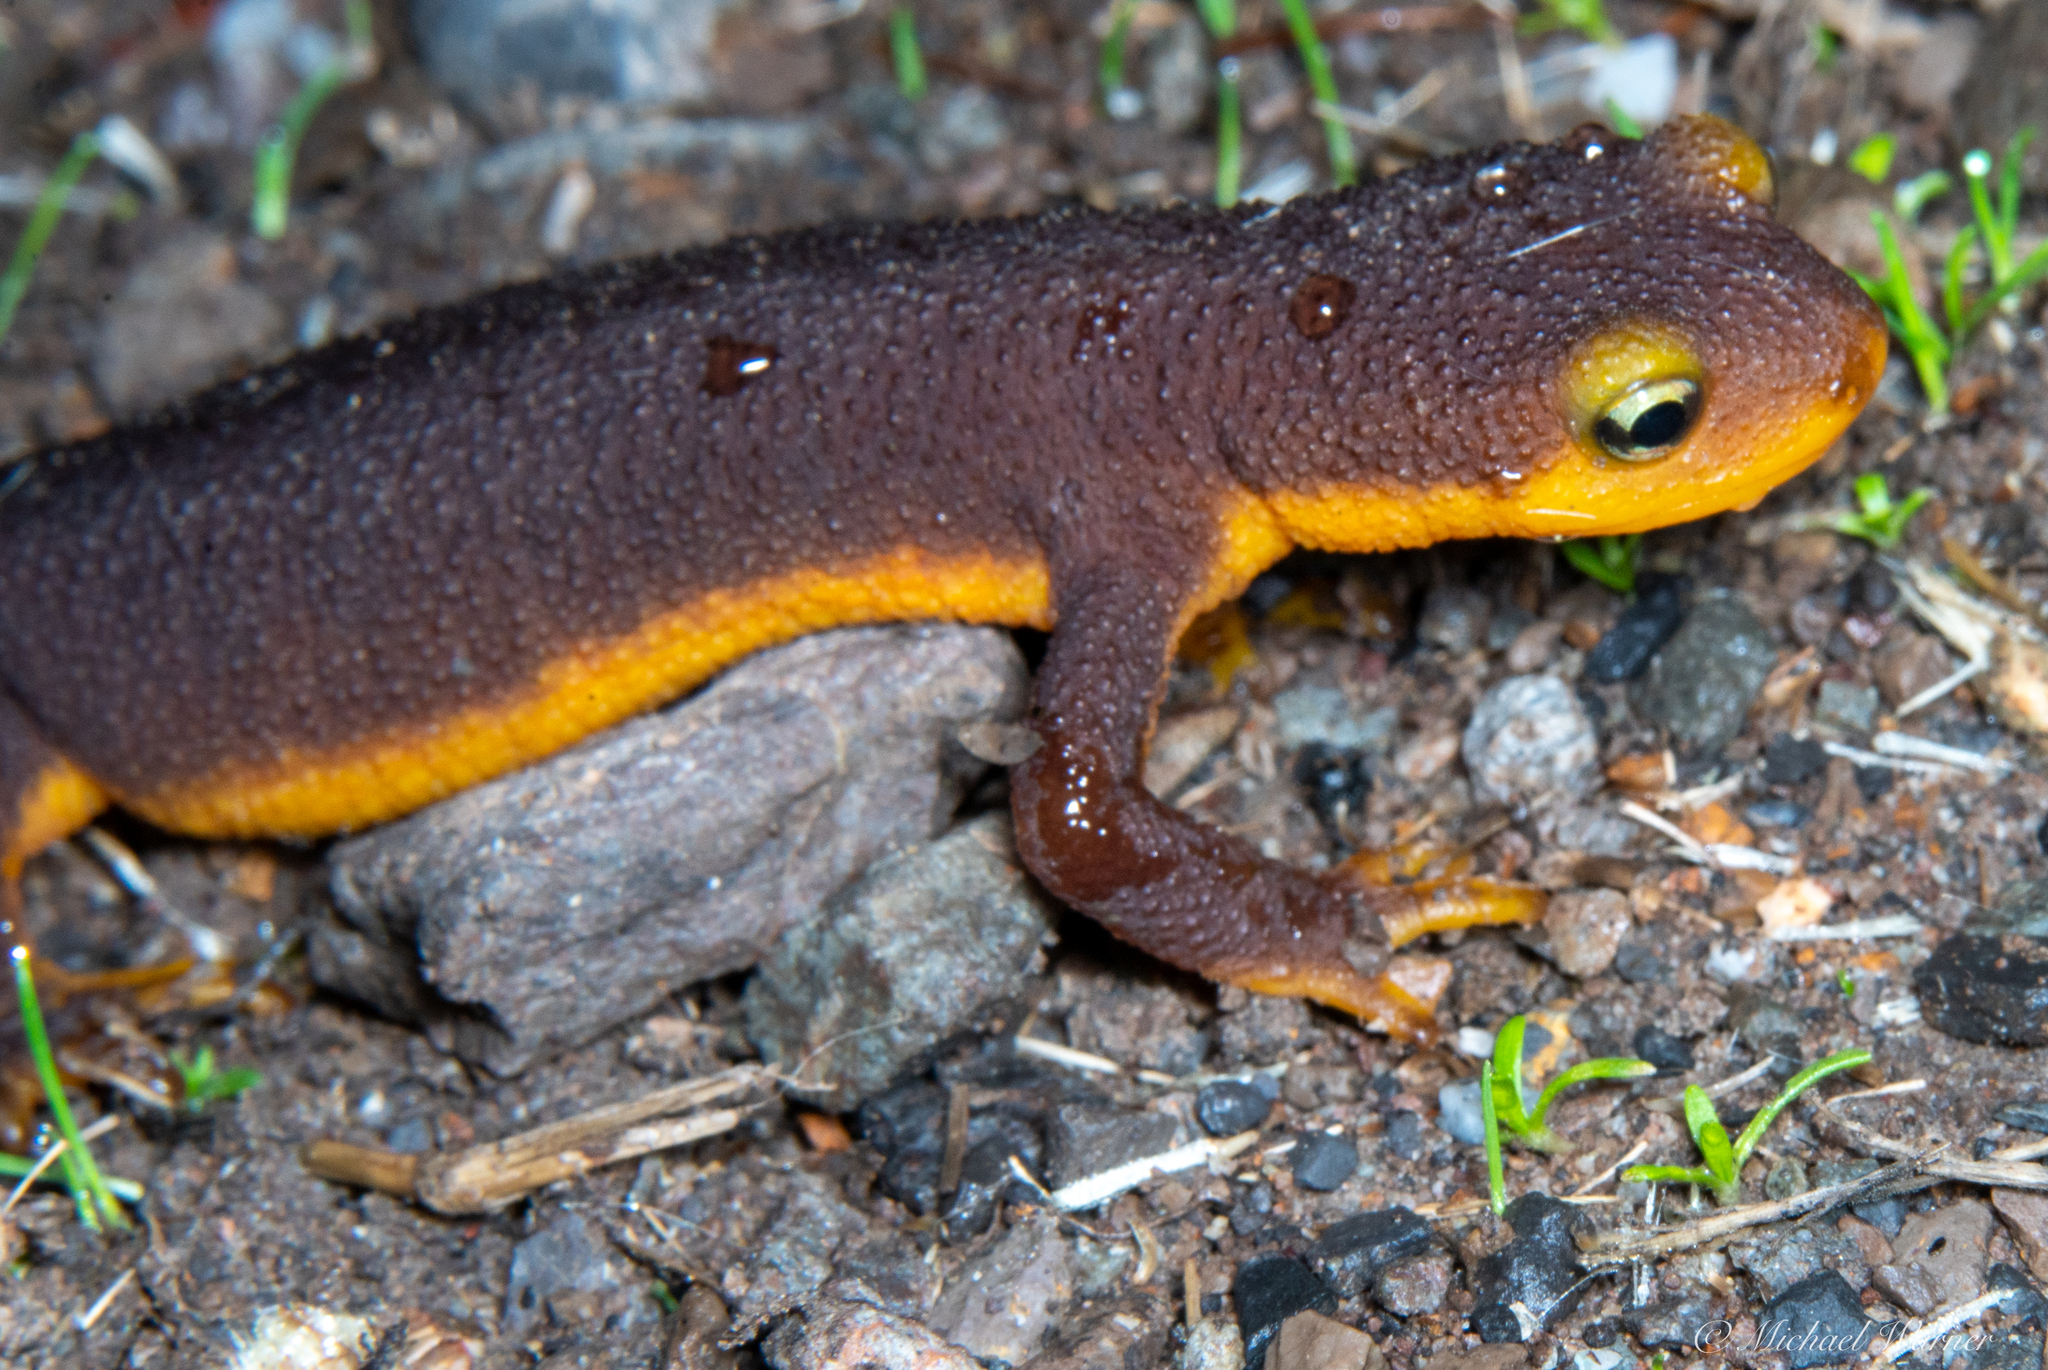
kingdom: Animalia
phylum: Chordata
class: Amphibia
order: Caudata
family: Salamandridae
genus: Taricha
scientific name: Taricha torosa
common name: California newt
